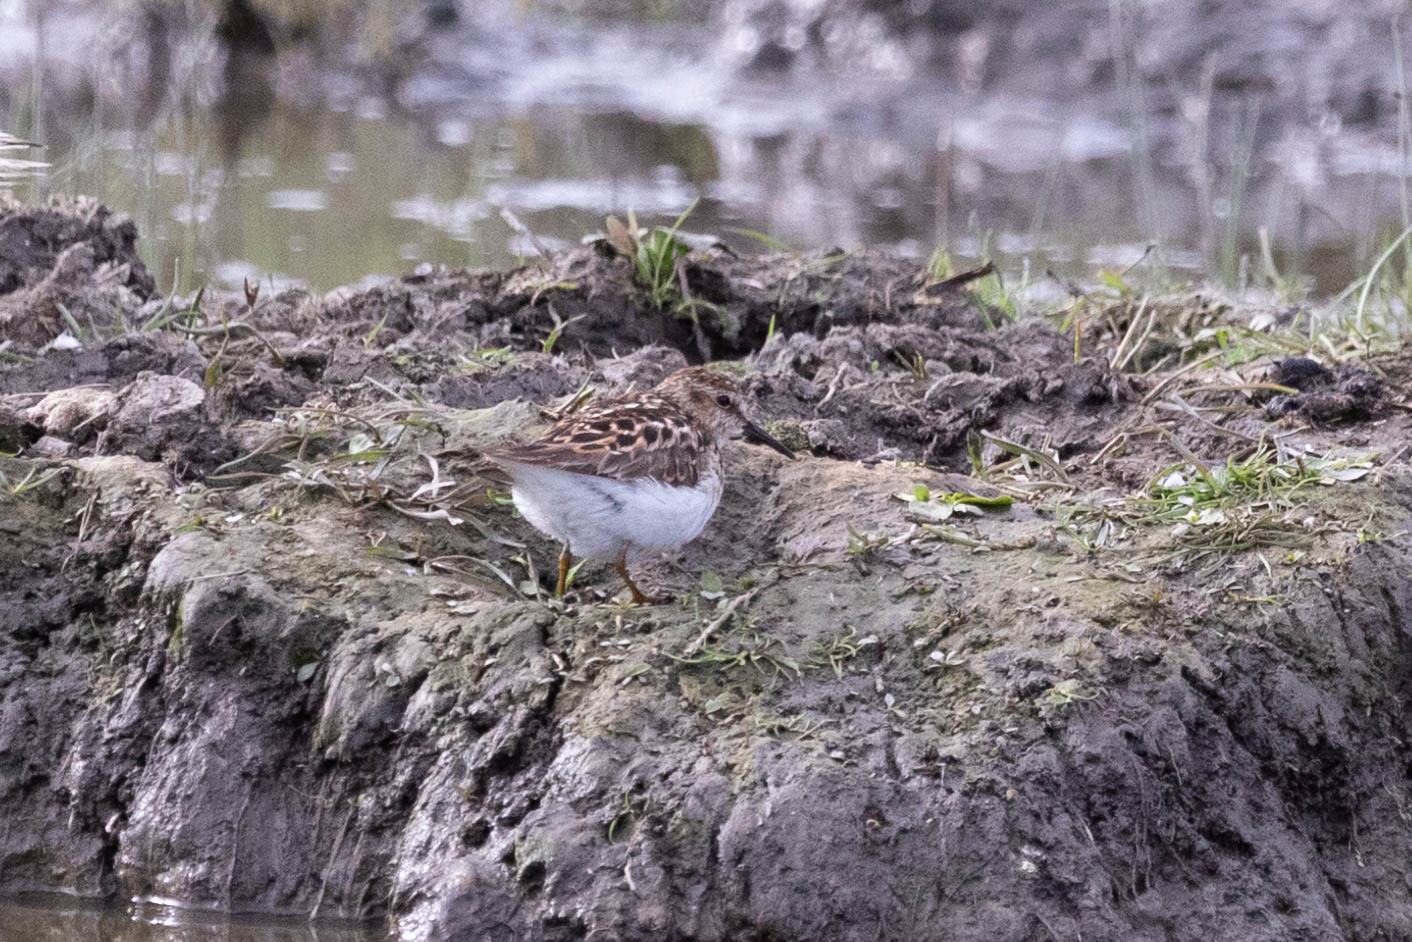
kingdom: Animalia
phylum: Chordata
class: Aves
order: Charadriiformes
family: Scolopacidae
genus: Calidris
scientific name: Calidris minutilla
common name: Least sandpiper
